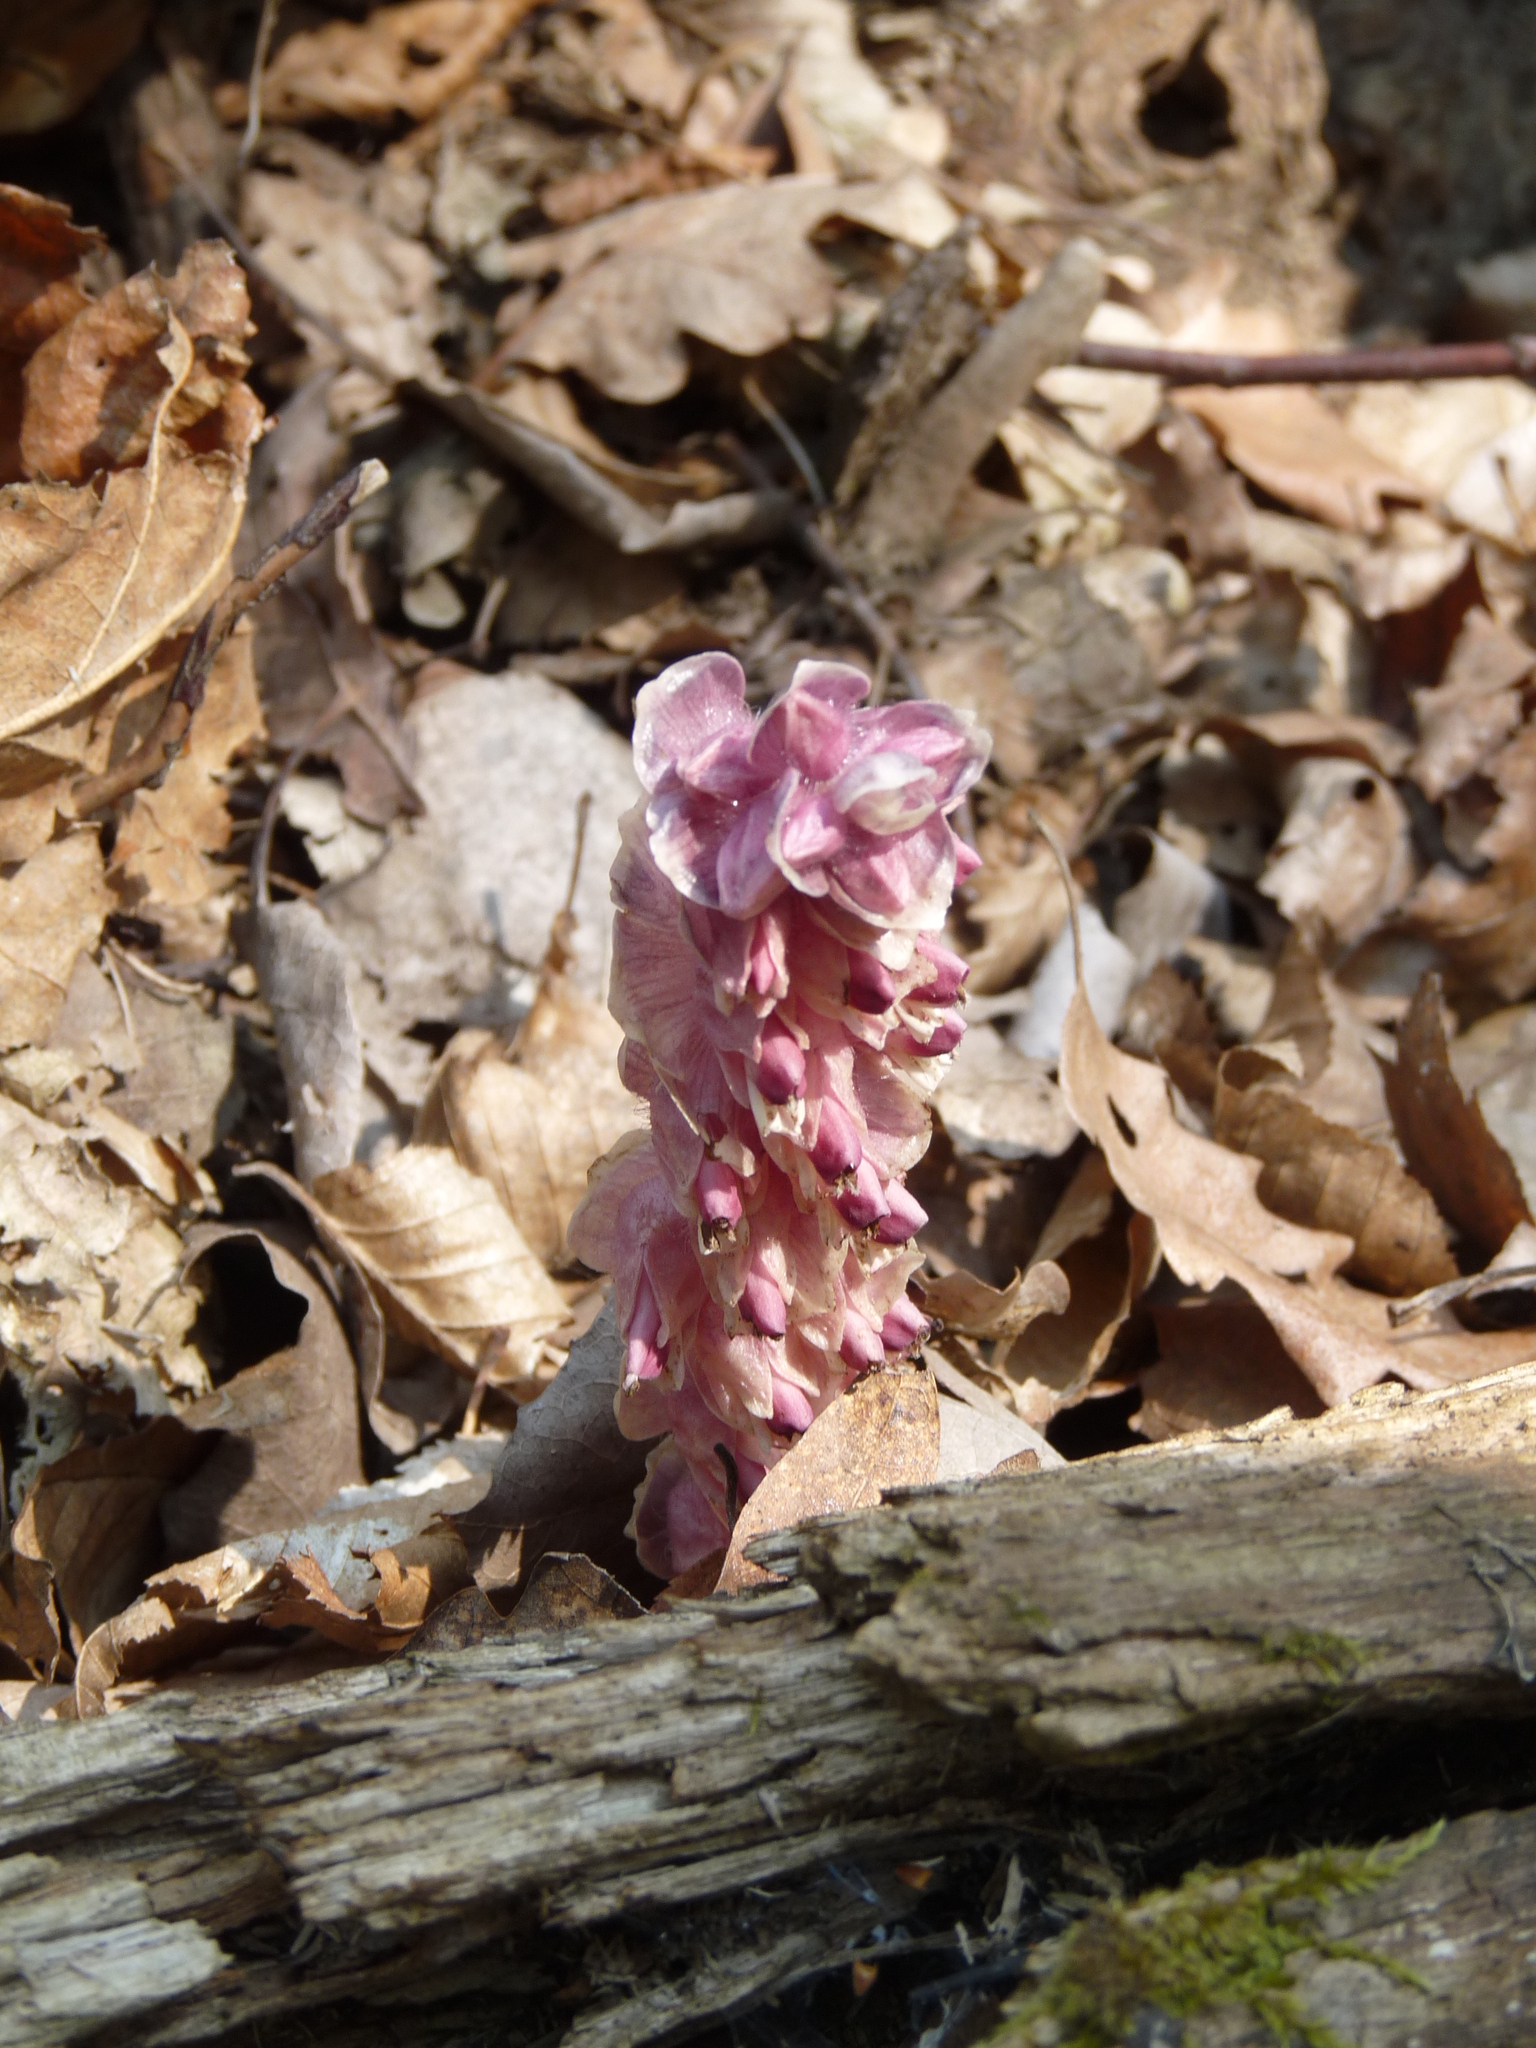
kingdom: Plantae
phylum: Tracheophyta
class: Magnoliopsida
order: Lamiales
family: Orobanchaceae
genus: Lathraea
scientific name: Lathraea squamaria
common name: Toothwort
